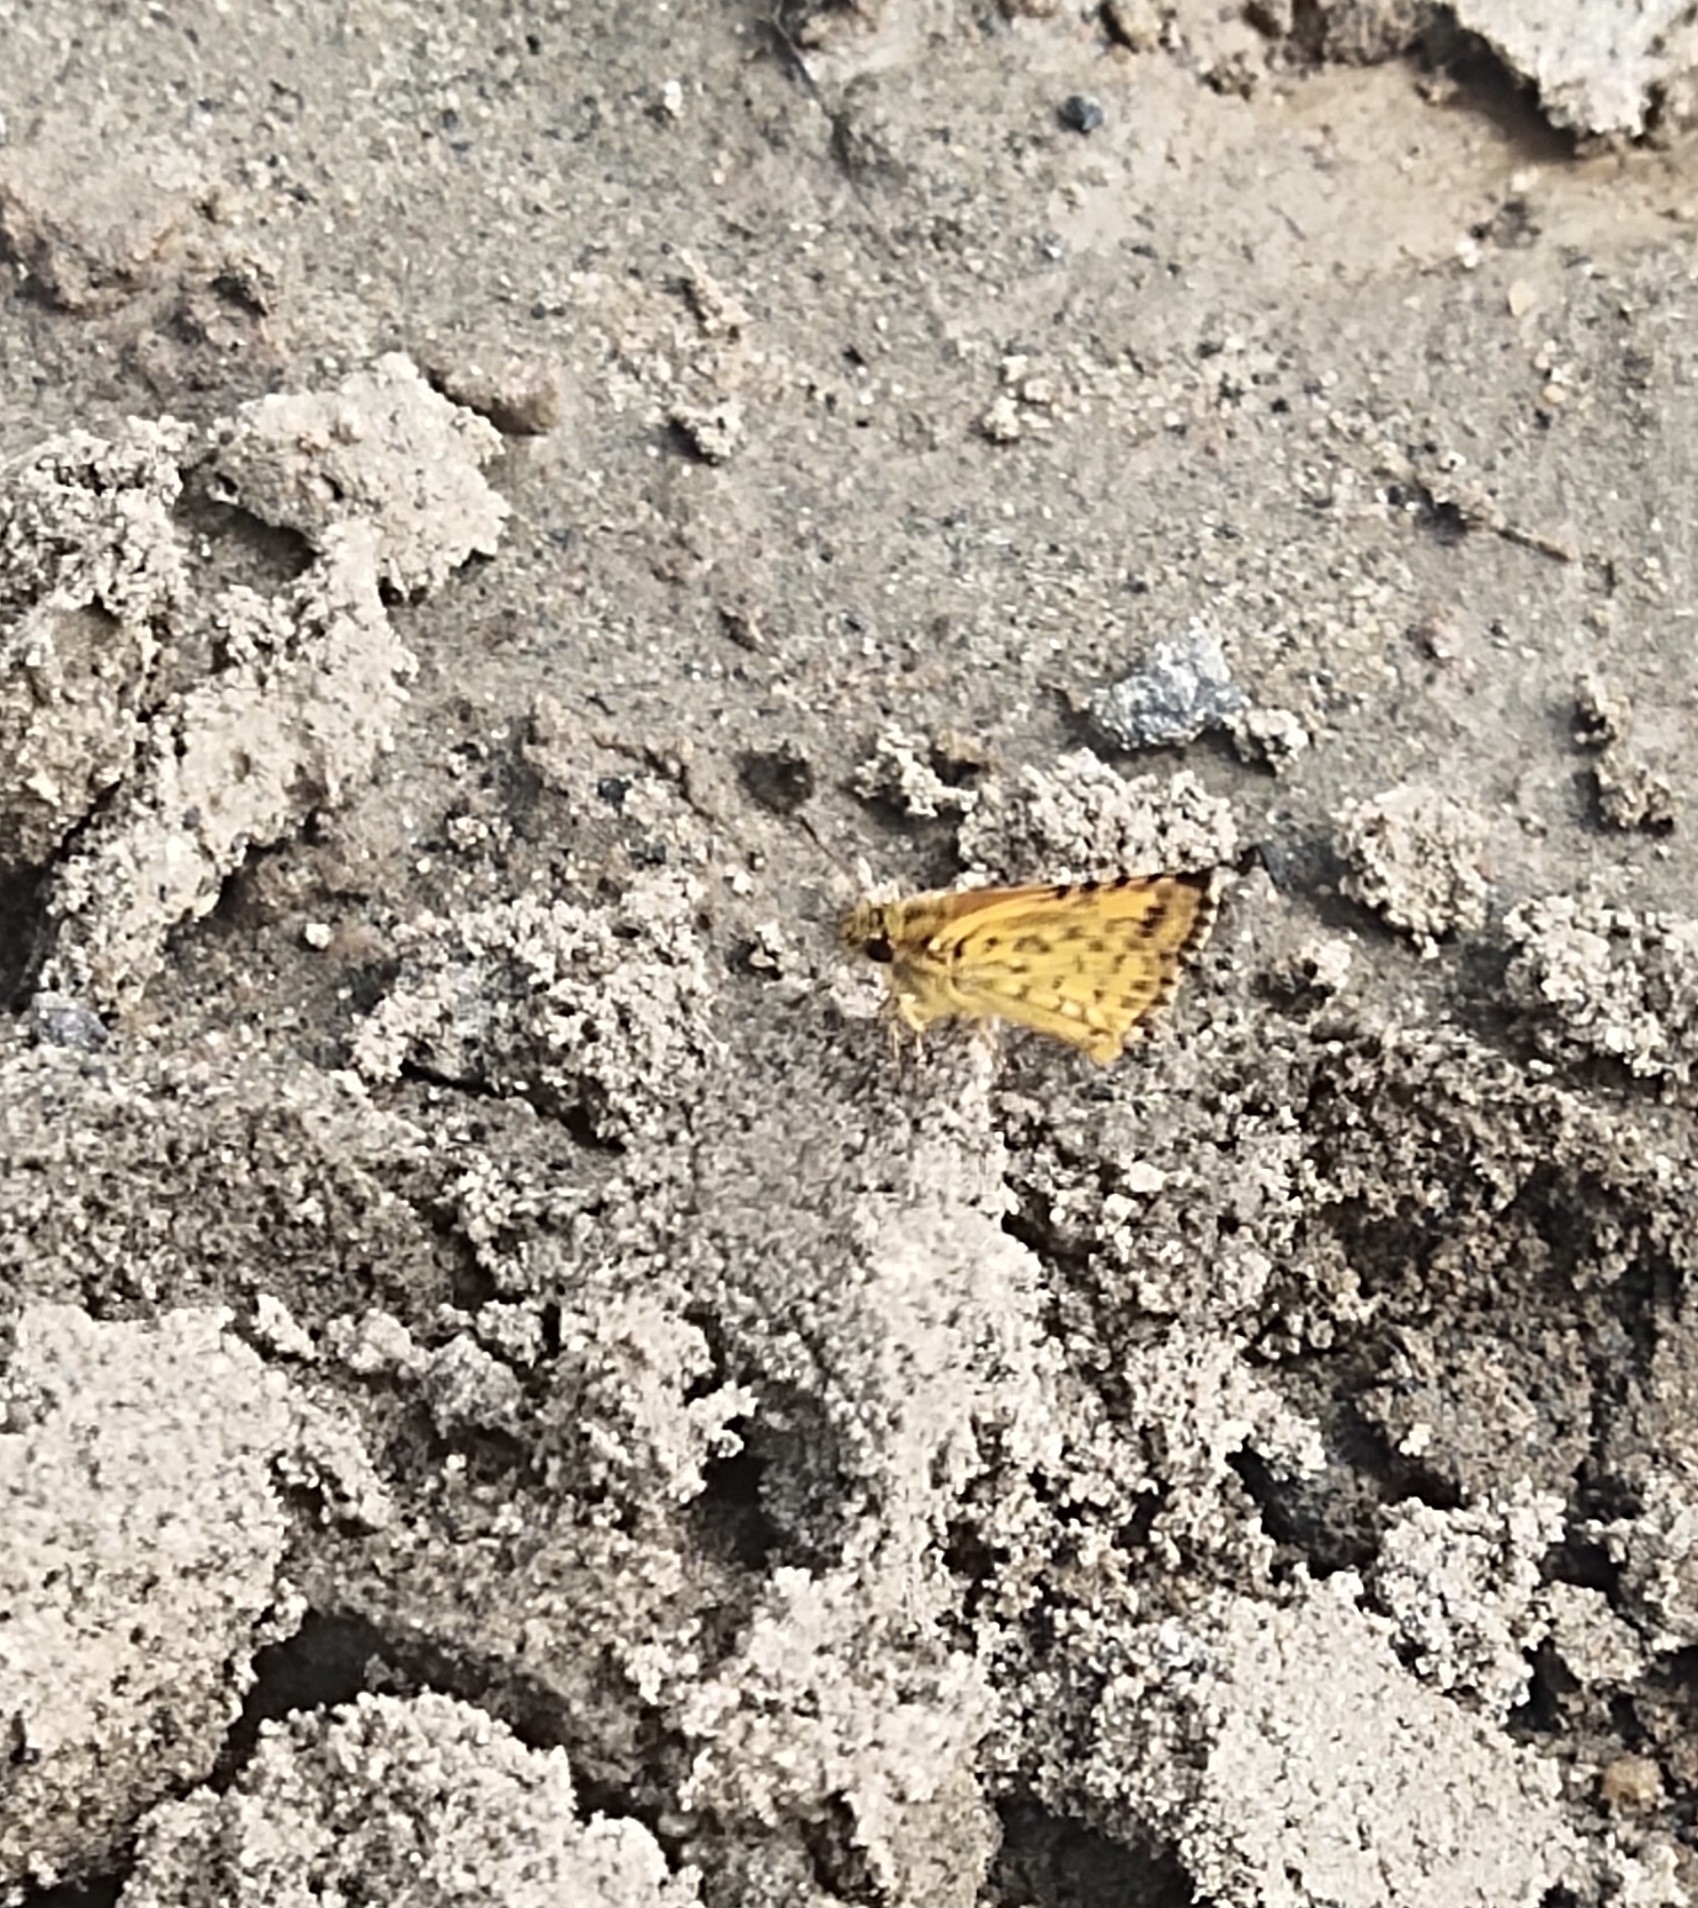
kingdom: Animalia
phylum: Arthropoda
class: Insecta
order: Lepidoptera
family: Hesperiidae
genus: Ampittia
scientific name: Ampittia dioscorides
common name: Common bush hopper
